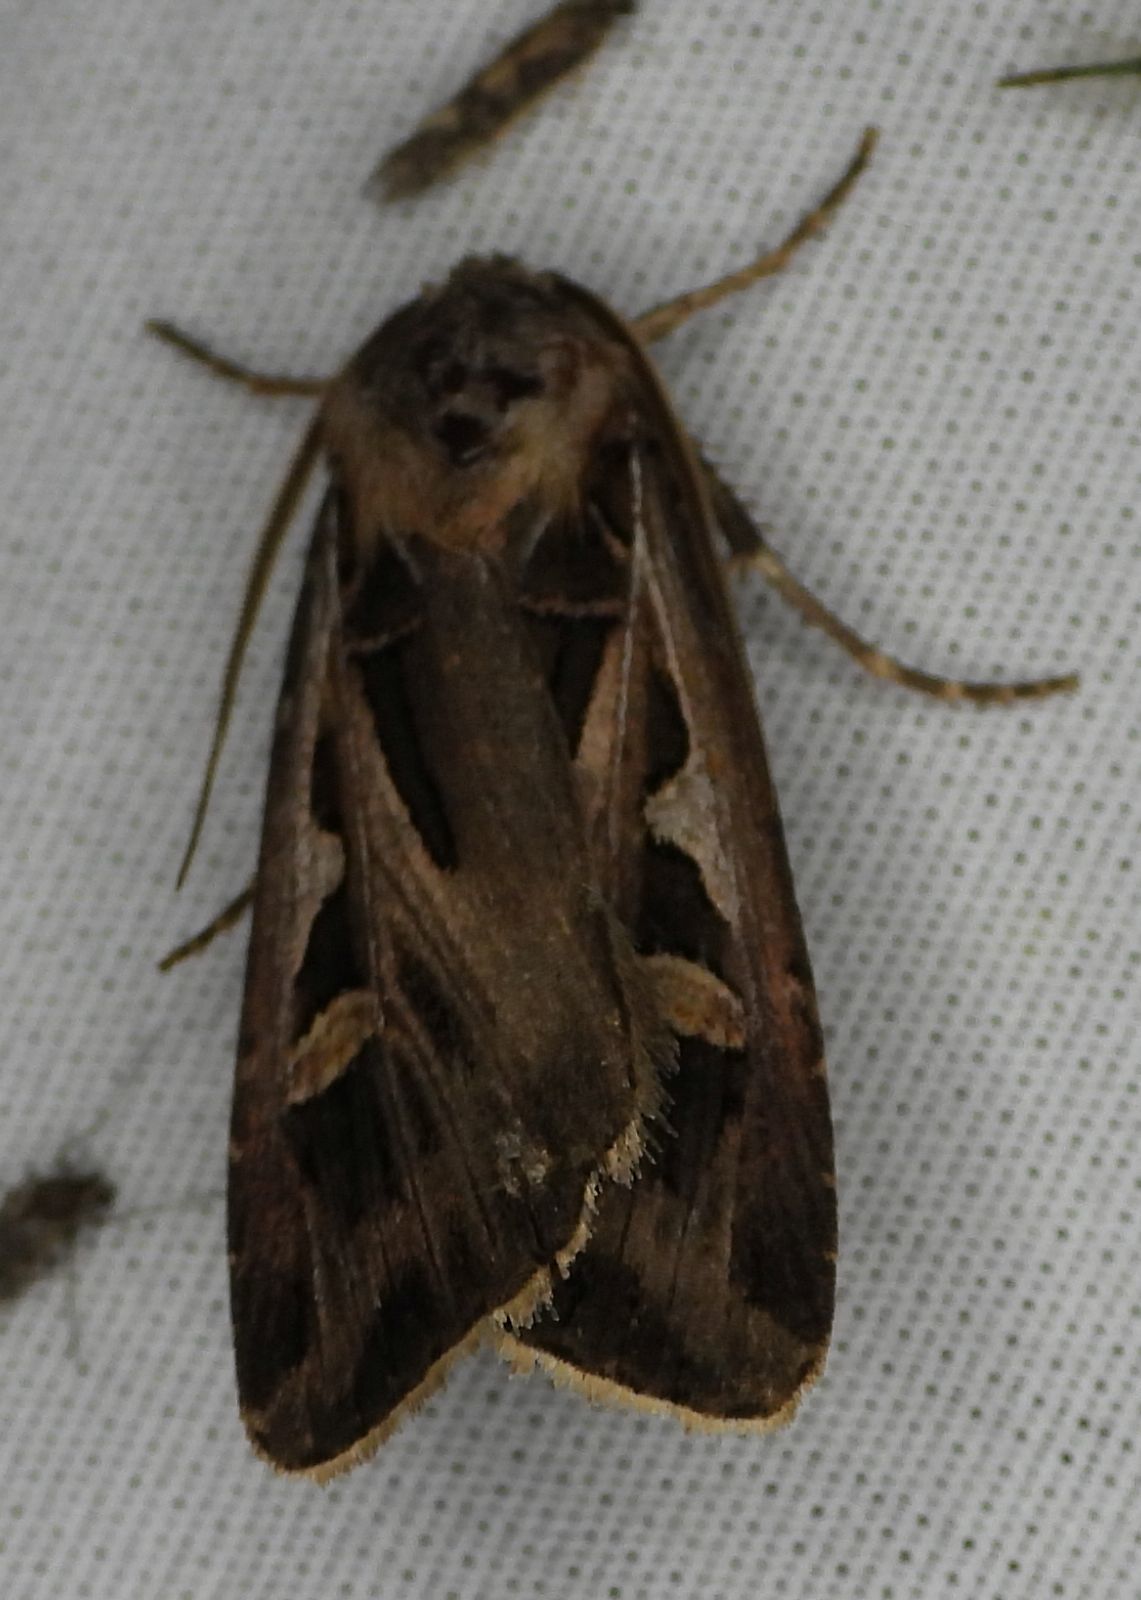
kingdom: Animalia
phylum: Arthropoda
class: Insecta
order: Lepidoptera
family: Noctuidae
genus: Feltia
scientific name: Feltia jaculifera
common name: Dingy cutworm moth
